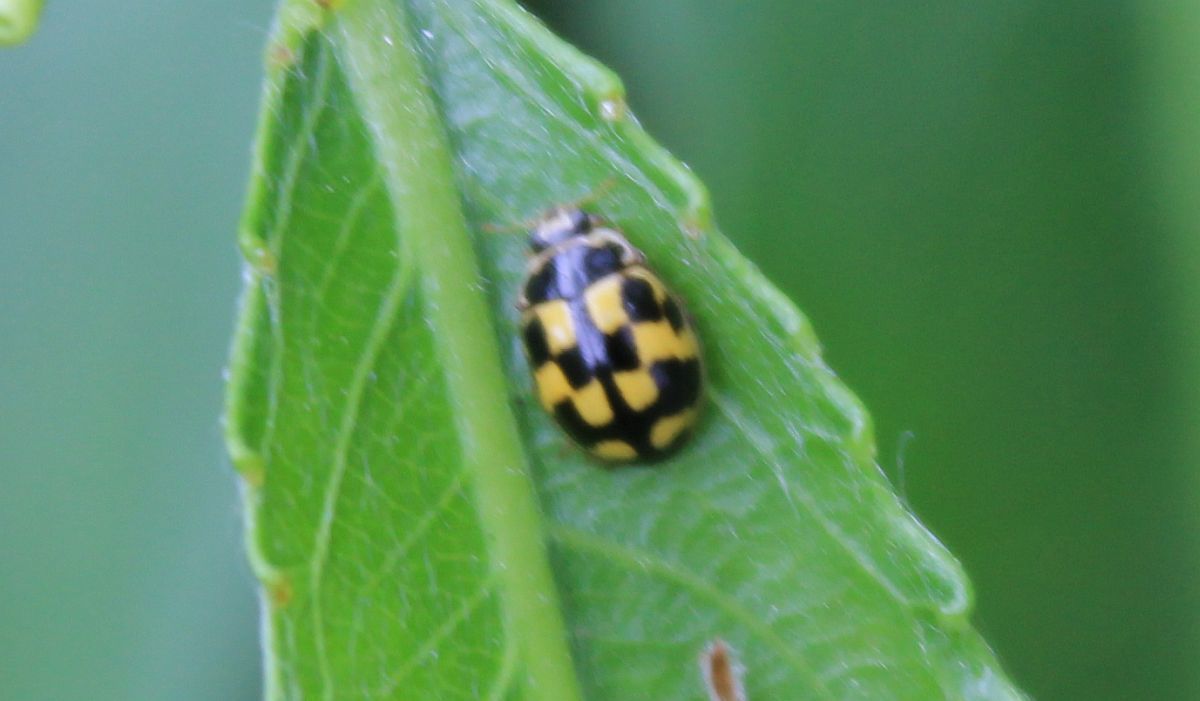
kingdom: Animalia
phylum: Arthropoda
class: Insecta
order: Coleoptera
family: Coccinellidae
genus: Propylaea
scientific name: Propylaea quatuordecimpunctata
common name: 14-spotted ladybird beetle
